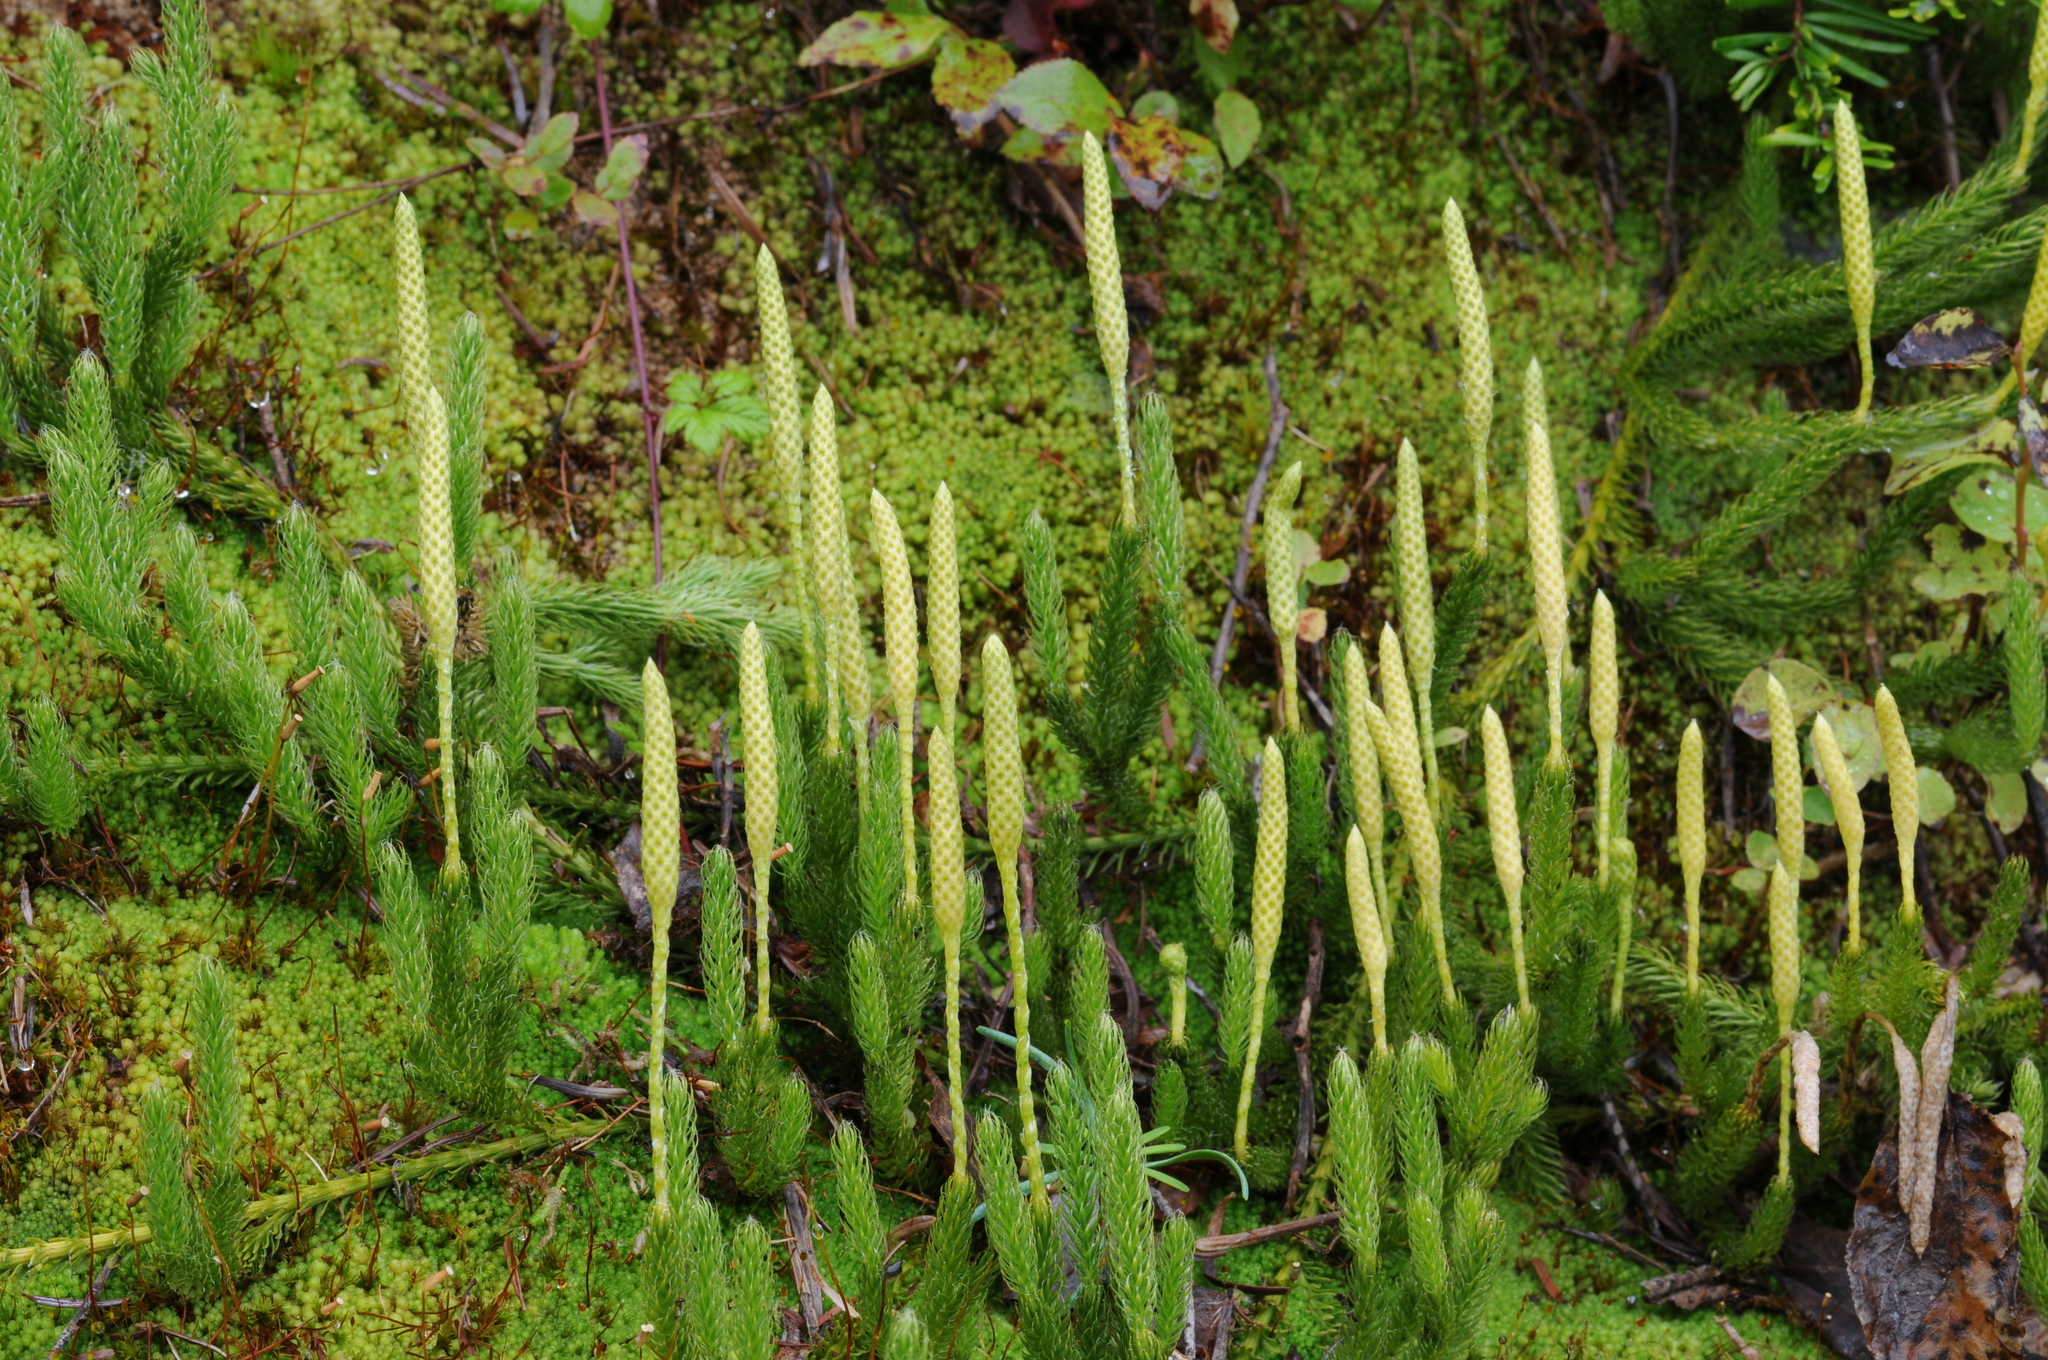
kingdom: Plantae
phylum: Tracheophyta
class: Lycopodiopsida
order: Lycopodiales
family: Lycopodiaceae
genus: Lycopodium
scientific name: Lycopodium lagopus
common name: One-cone clubmoss
